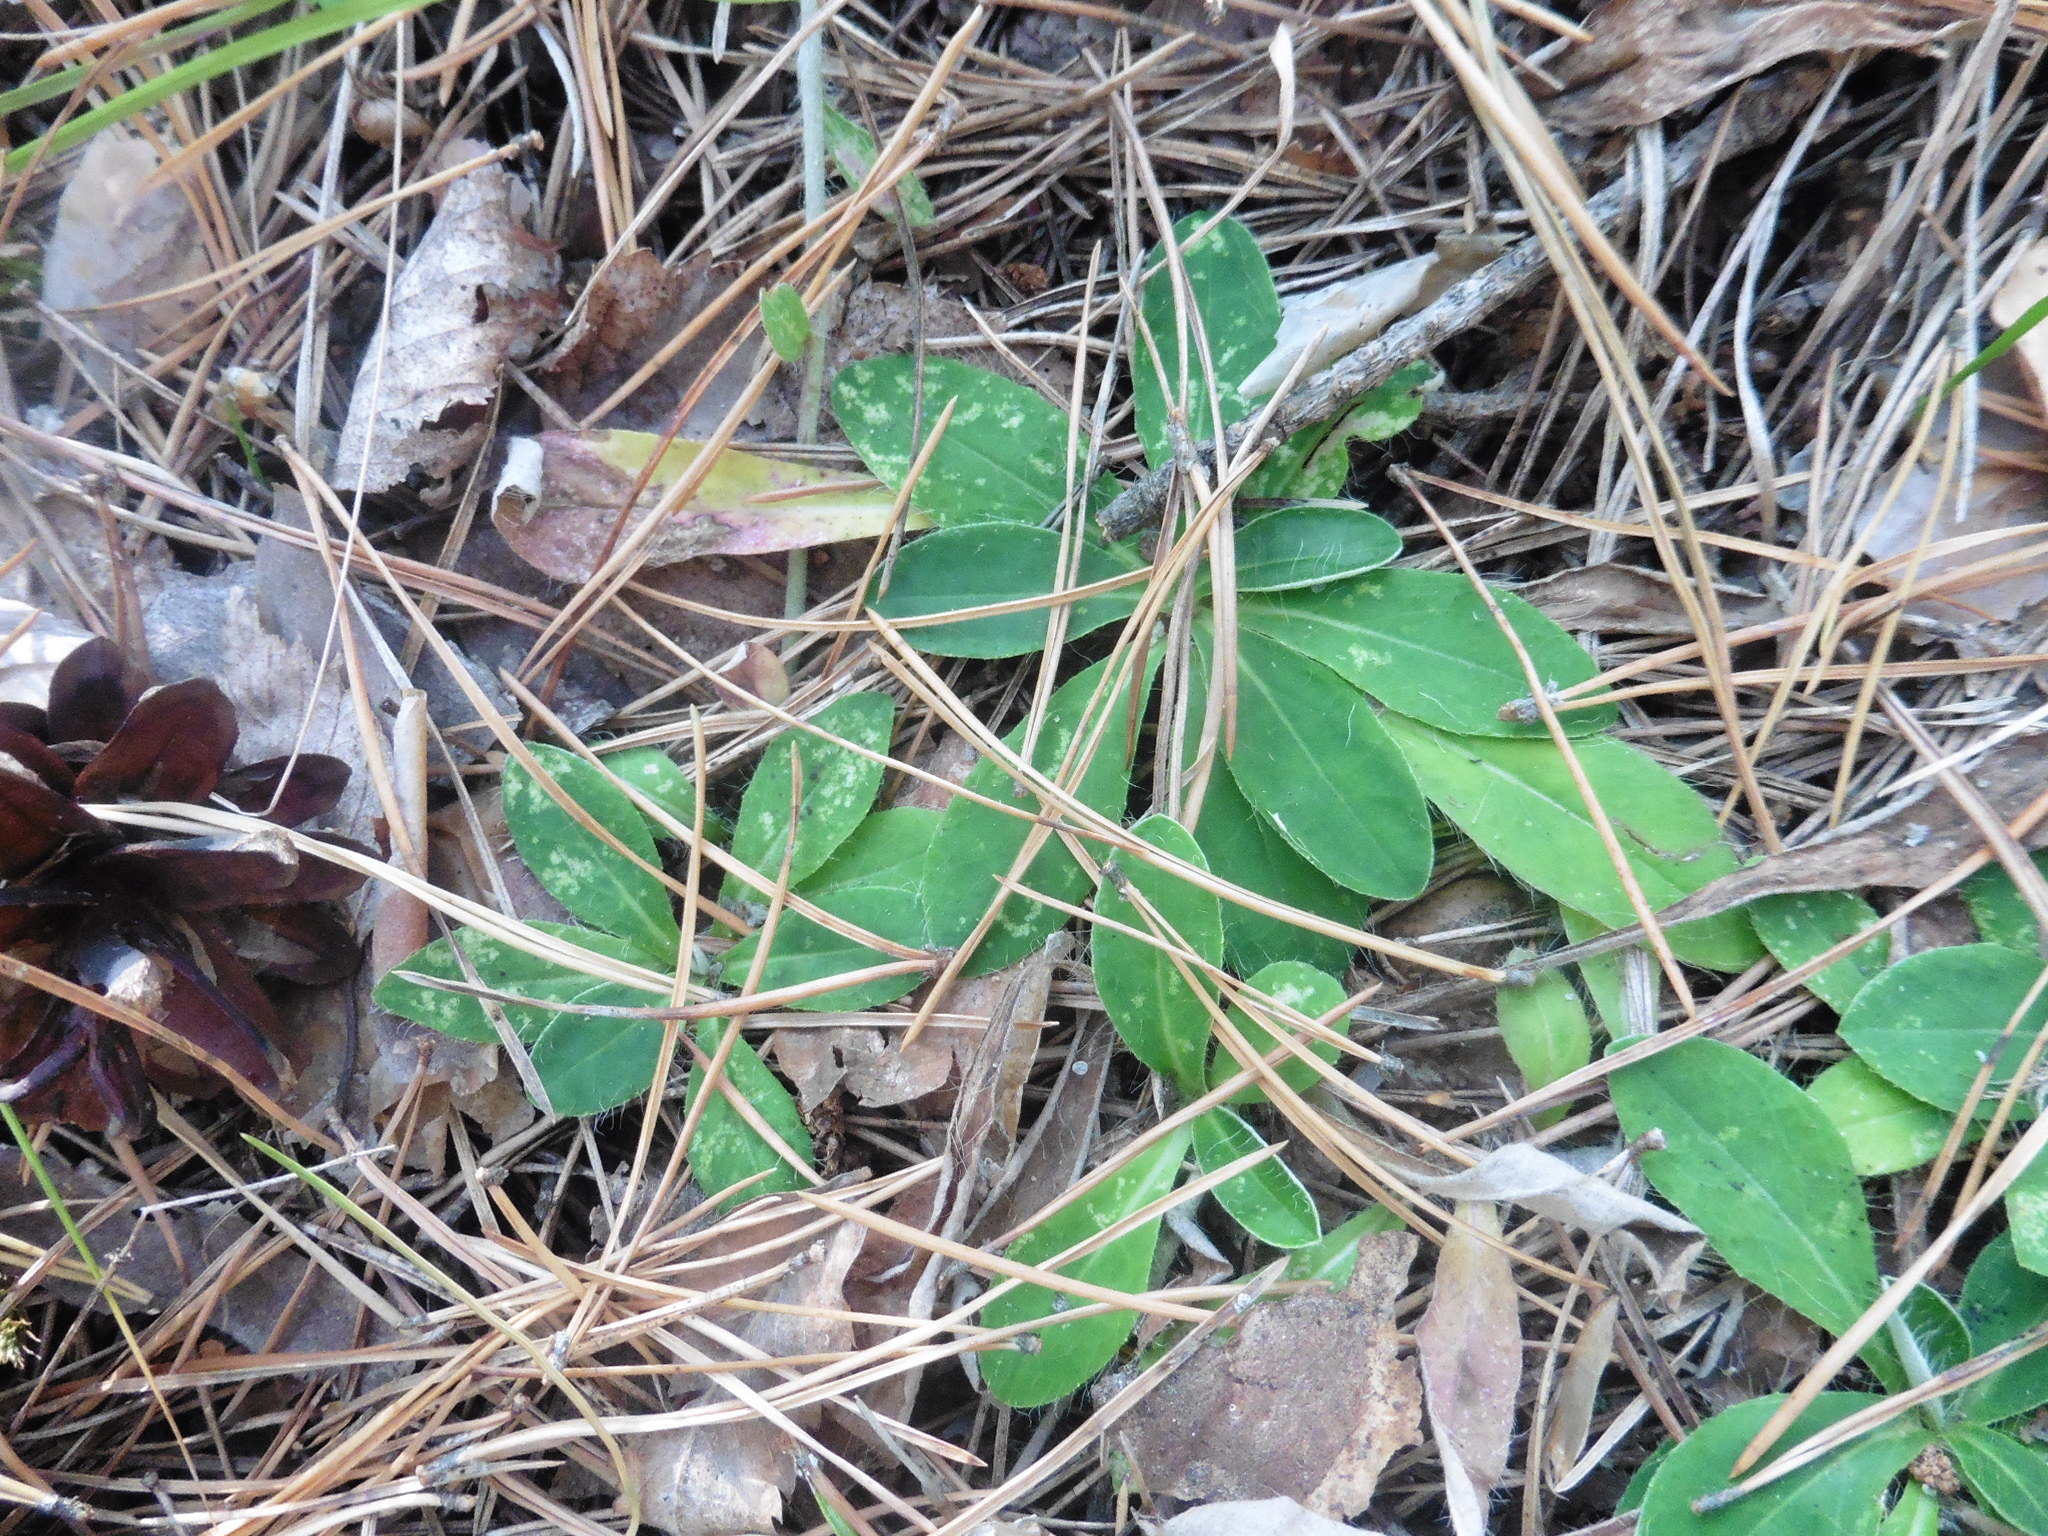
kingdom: Plantae
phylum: Tracheophyta
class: Magnoliopsida
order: Asterales
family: Asteraceae
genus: Pilosella
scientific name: Pilosella officinarum
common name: Mouse-ear hawkweed
